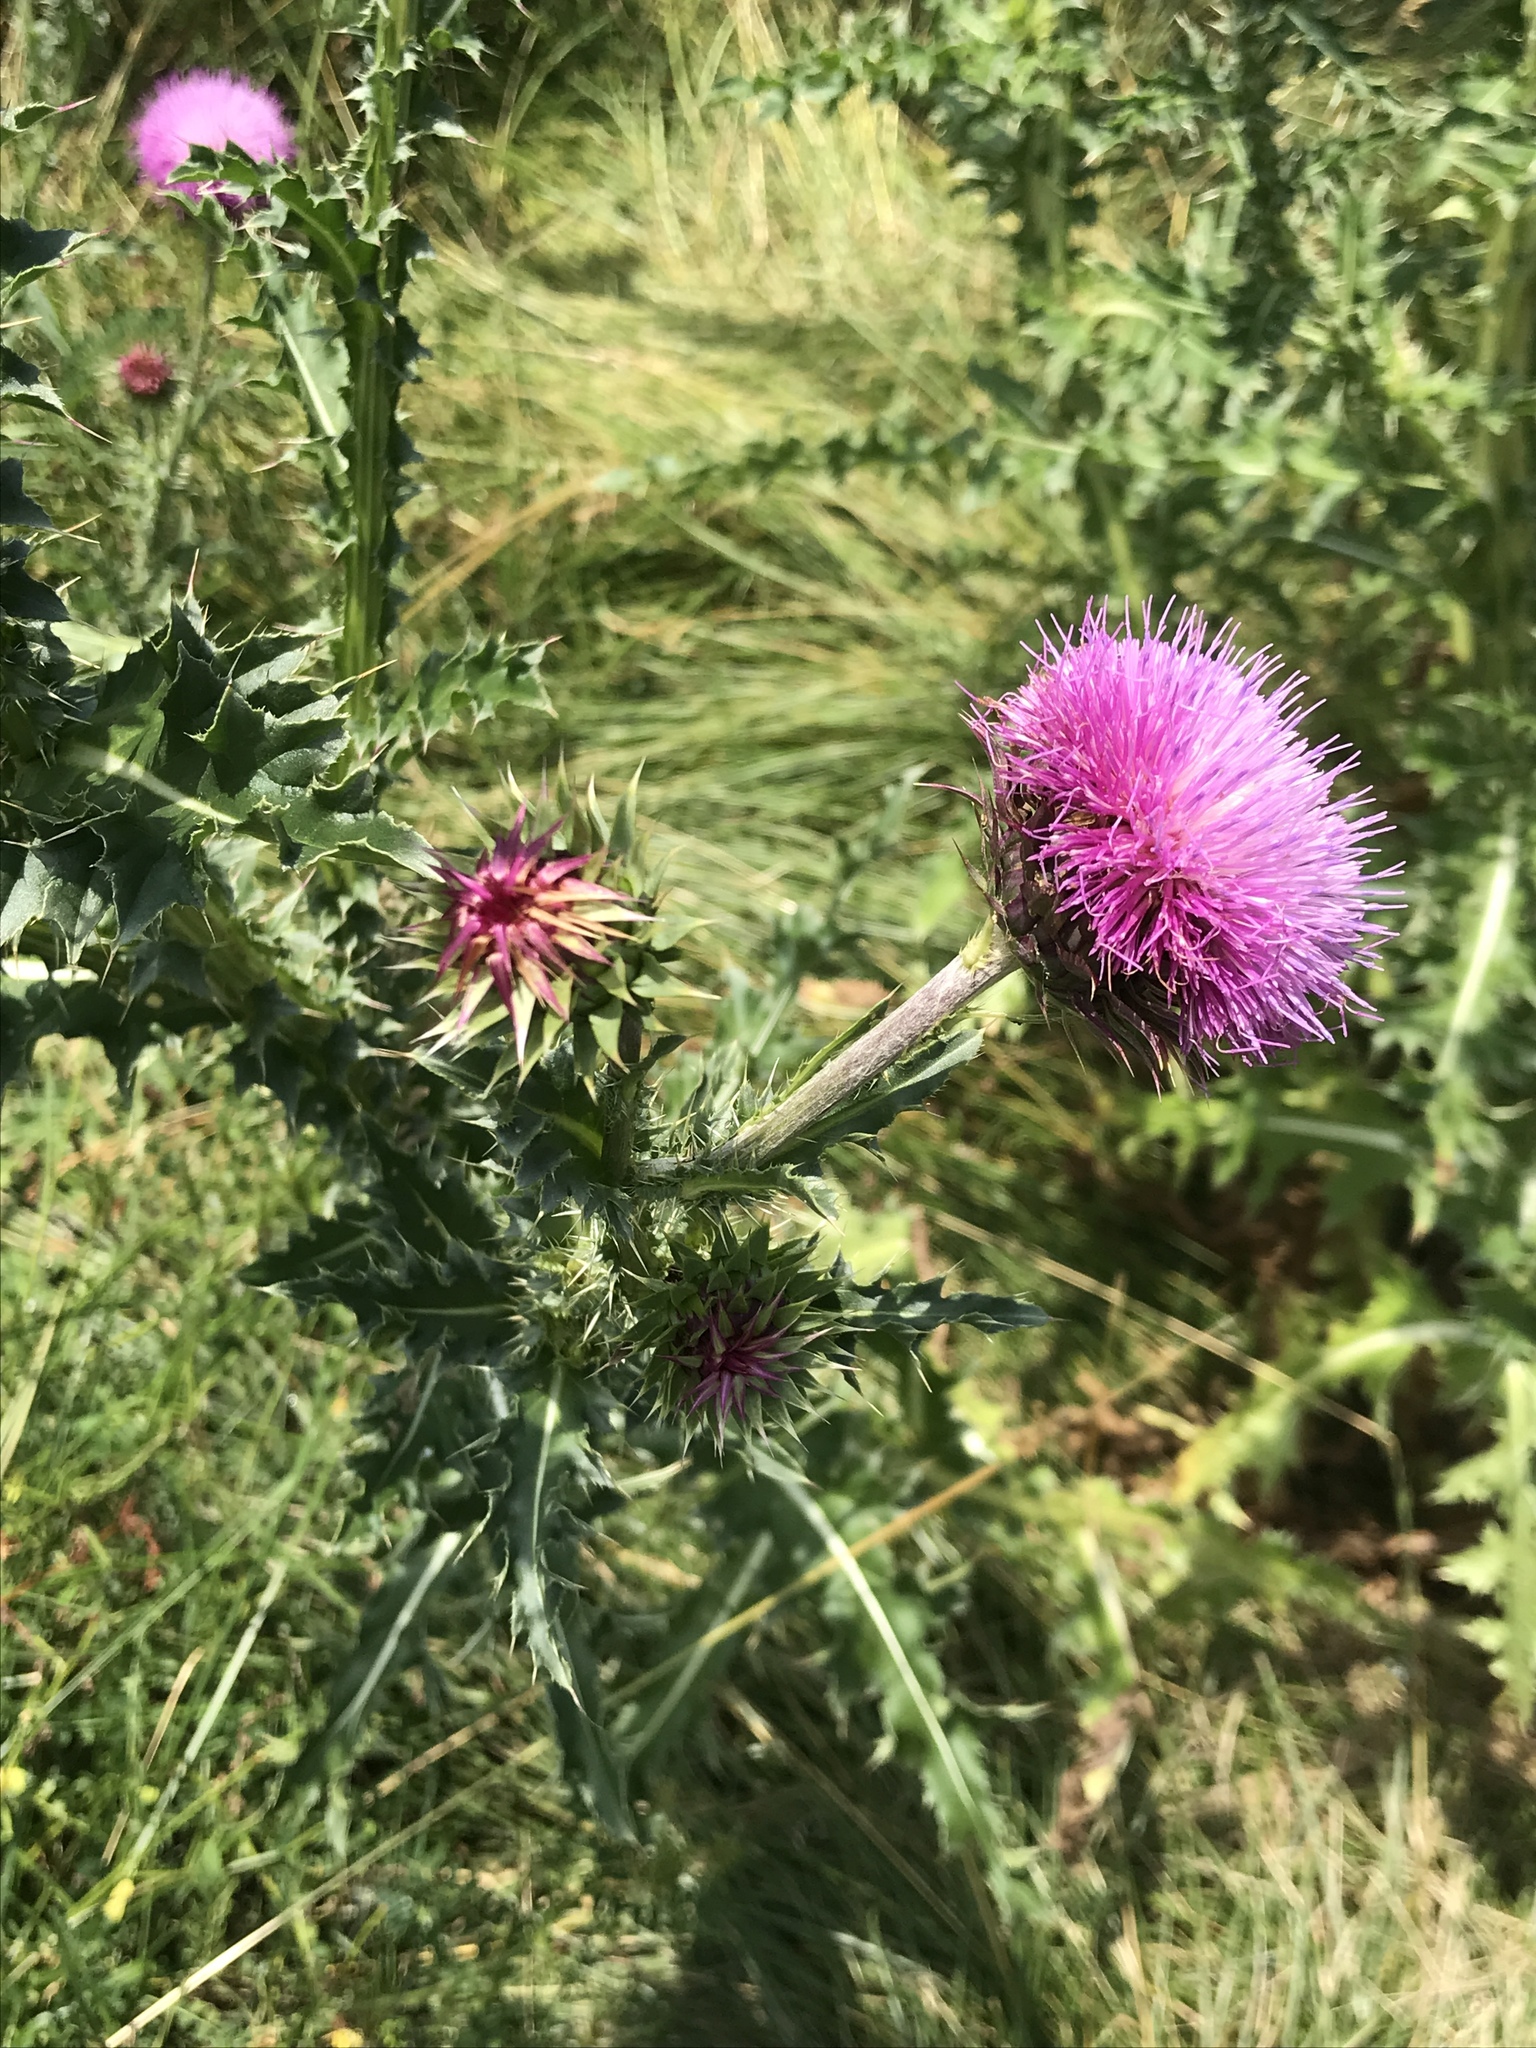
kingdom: Plantae
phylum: Tracheophyta
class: Magnoliopsida
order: Asterales
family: Asteraceae
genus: Carduus
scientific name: Carduus nutans
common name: Musk thistle
